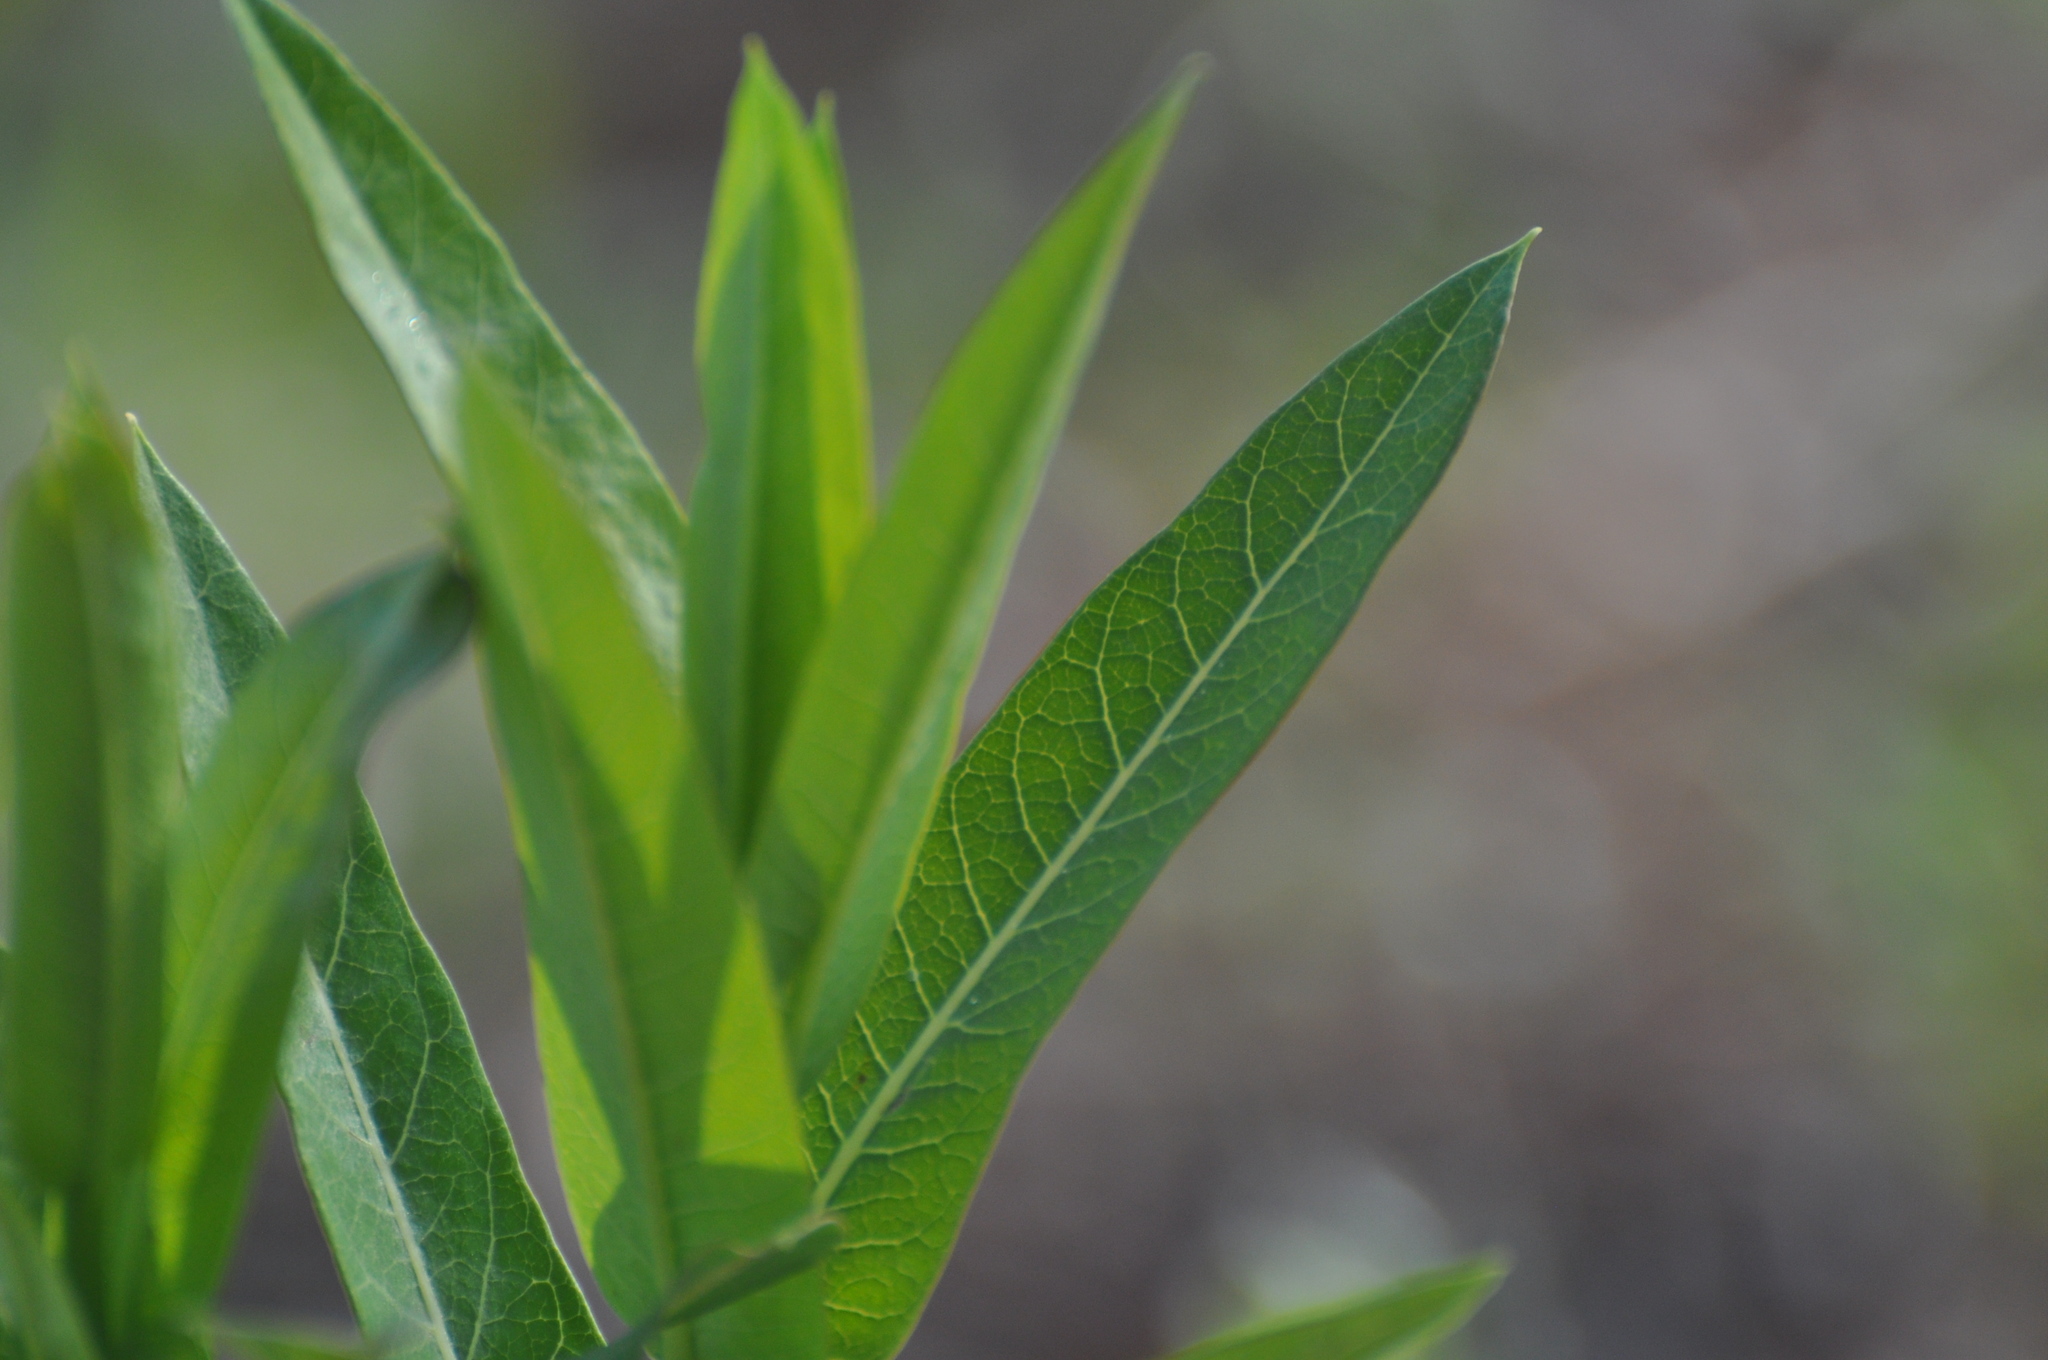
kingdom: Plantae
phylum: Tracheophyta
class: Magnoliopsida
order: Gentianales
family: Apocynaceae
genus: Apocynum
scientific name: Apocynum cannabinum
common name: Hemp dogbane
